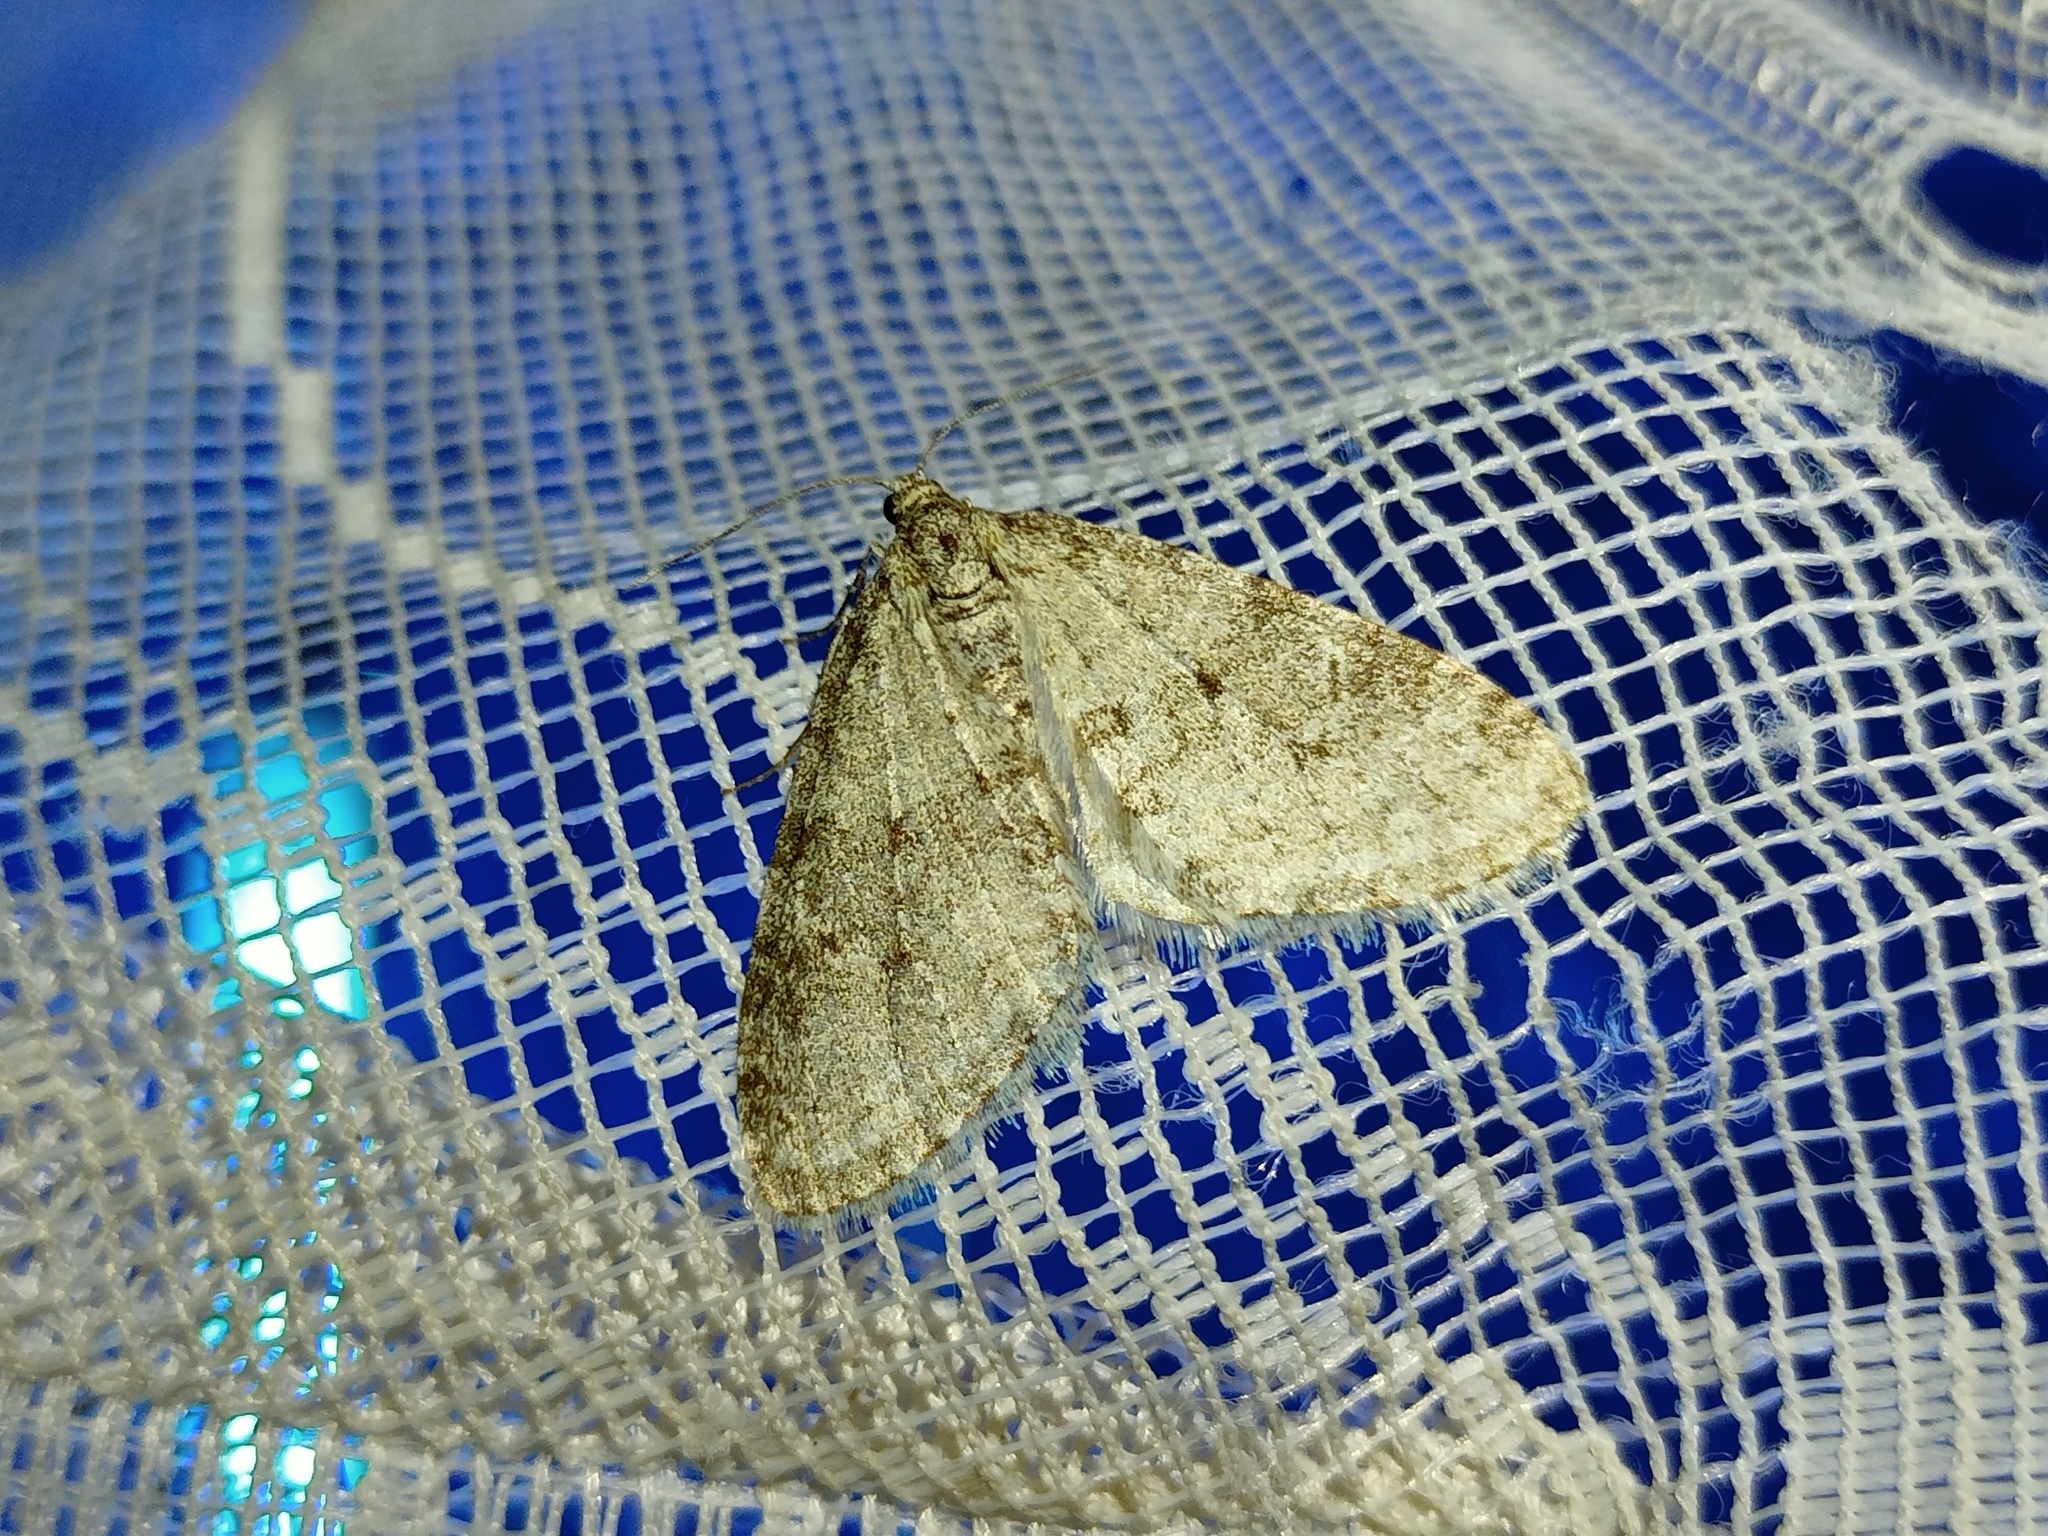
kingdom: Animalia
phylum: Arthropoda
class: Insecta
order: Lepidoptera
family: Geometridae
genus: Trichopteryx
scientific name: Trichopteryx carpinata
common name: Early tooth-striped
